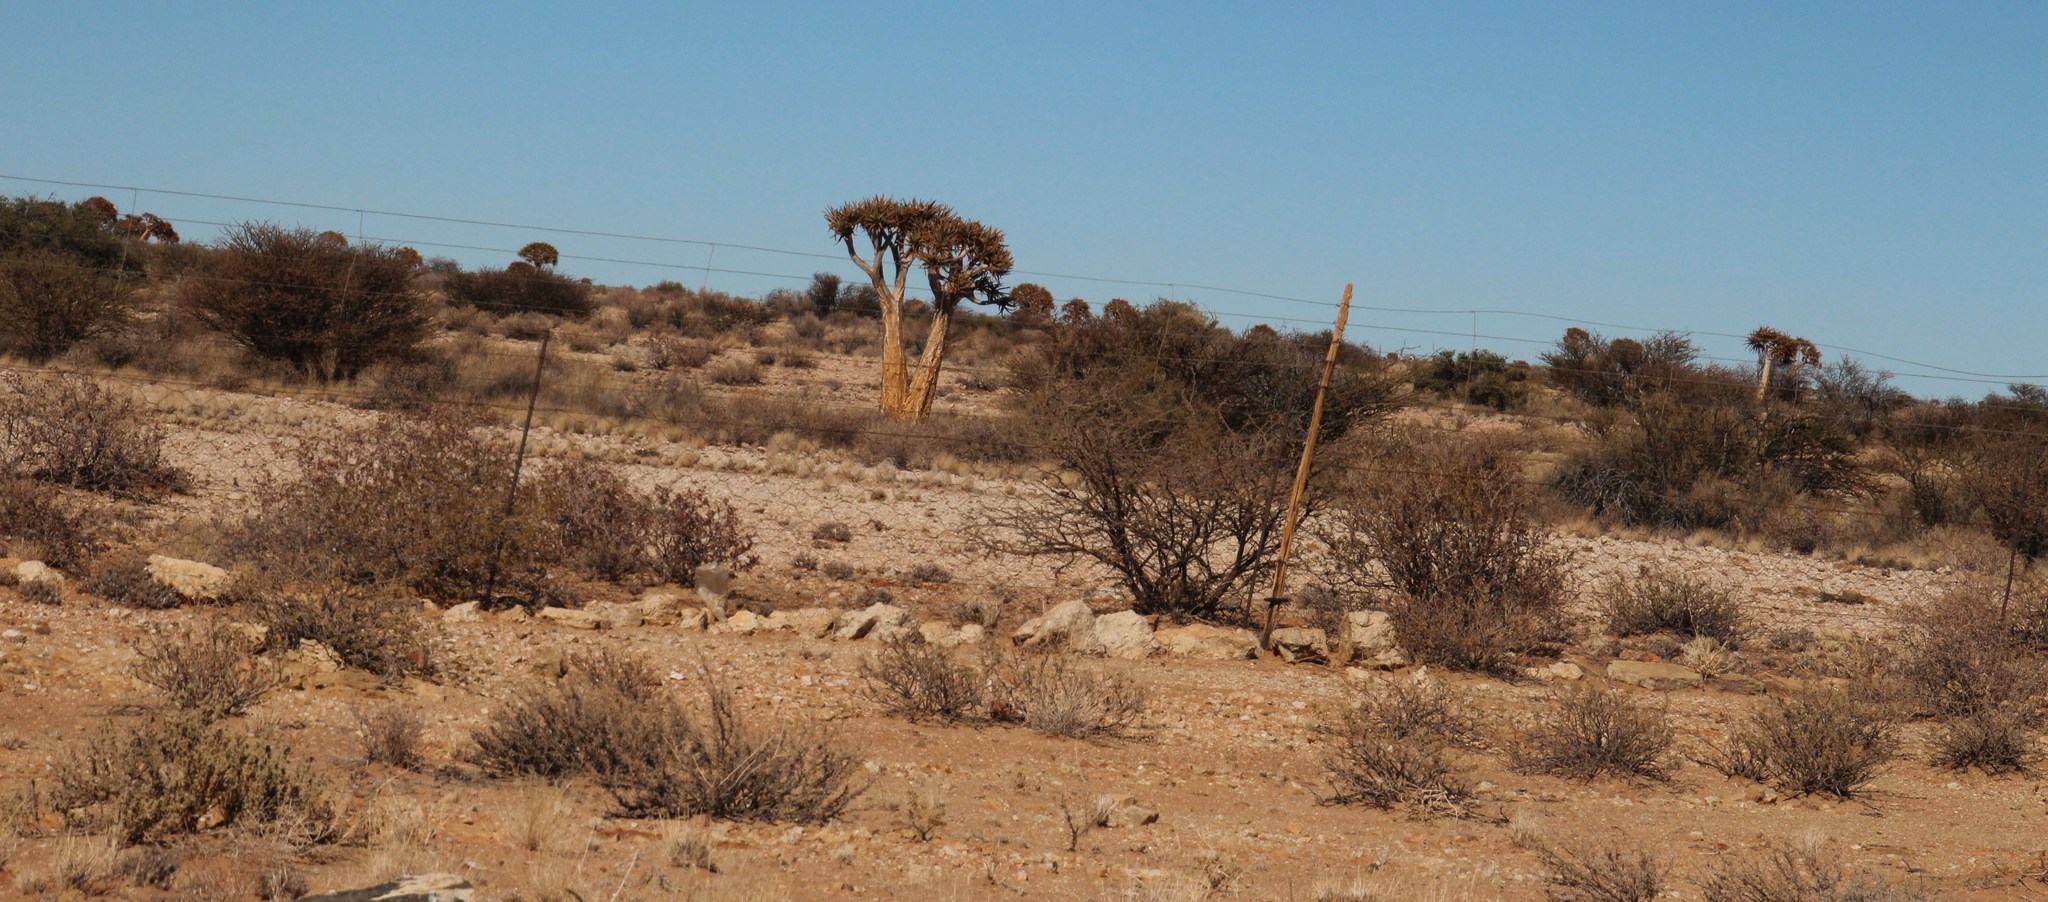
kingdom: Plantae
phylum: Tracheophyta
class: Liliopsida
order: Asparagales
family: Asphodelaceae
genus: Aloidendron
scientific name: Aloidendron dichotomum
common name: Quiver tree
